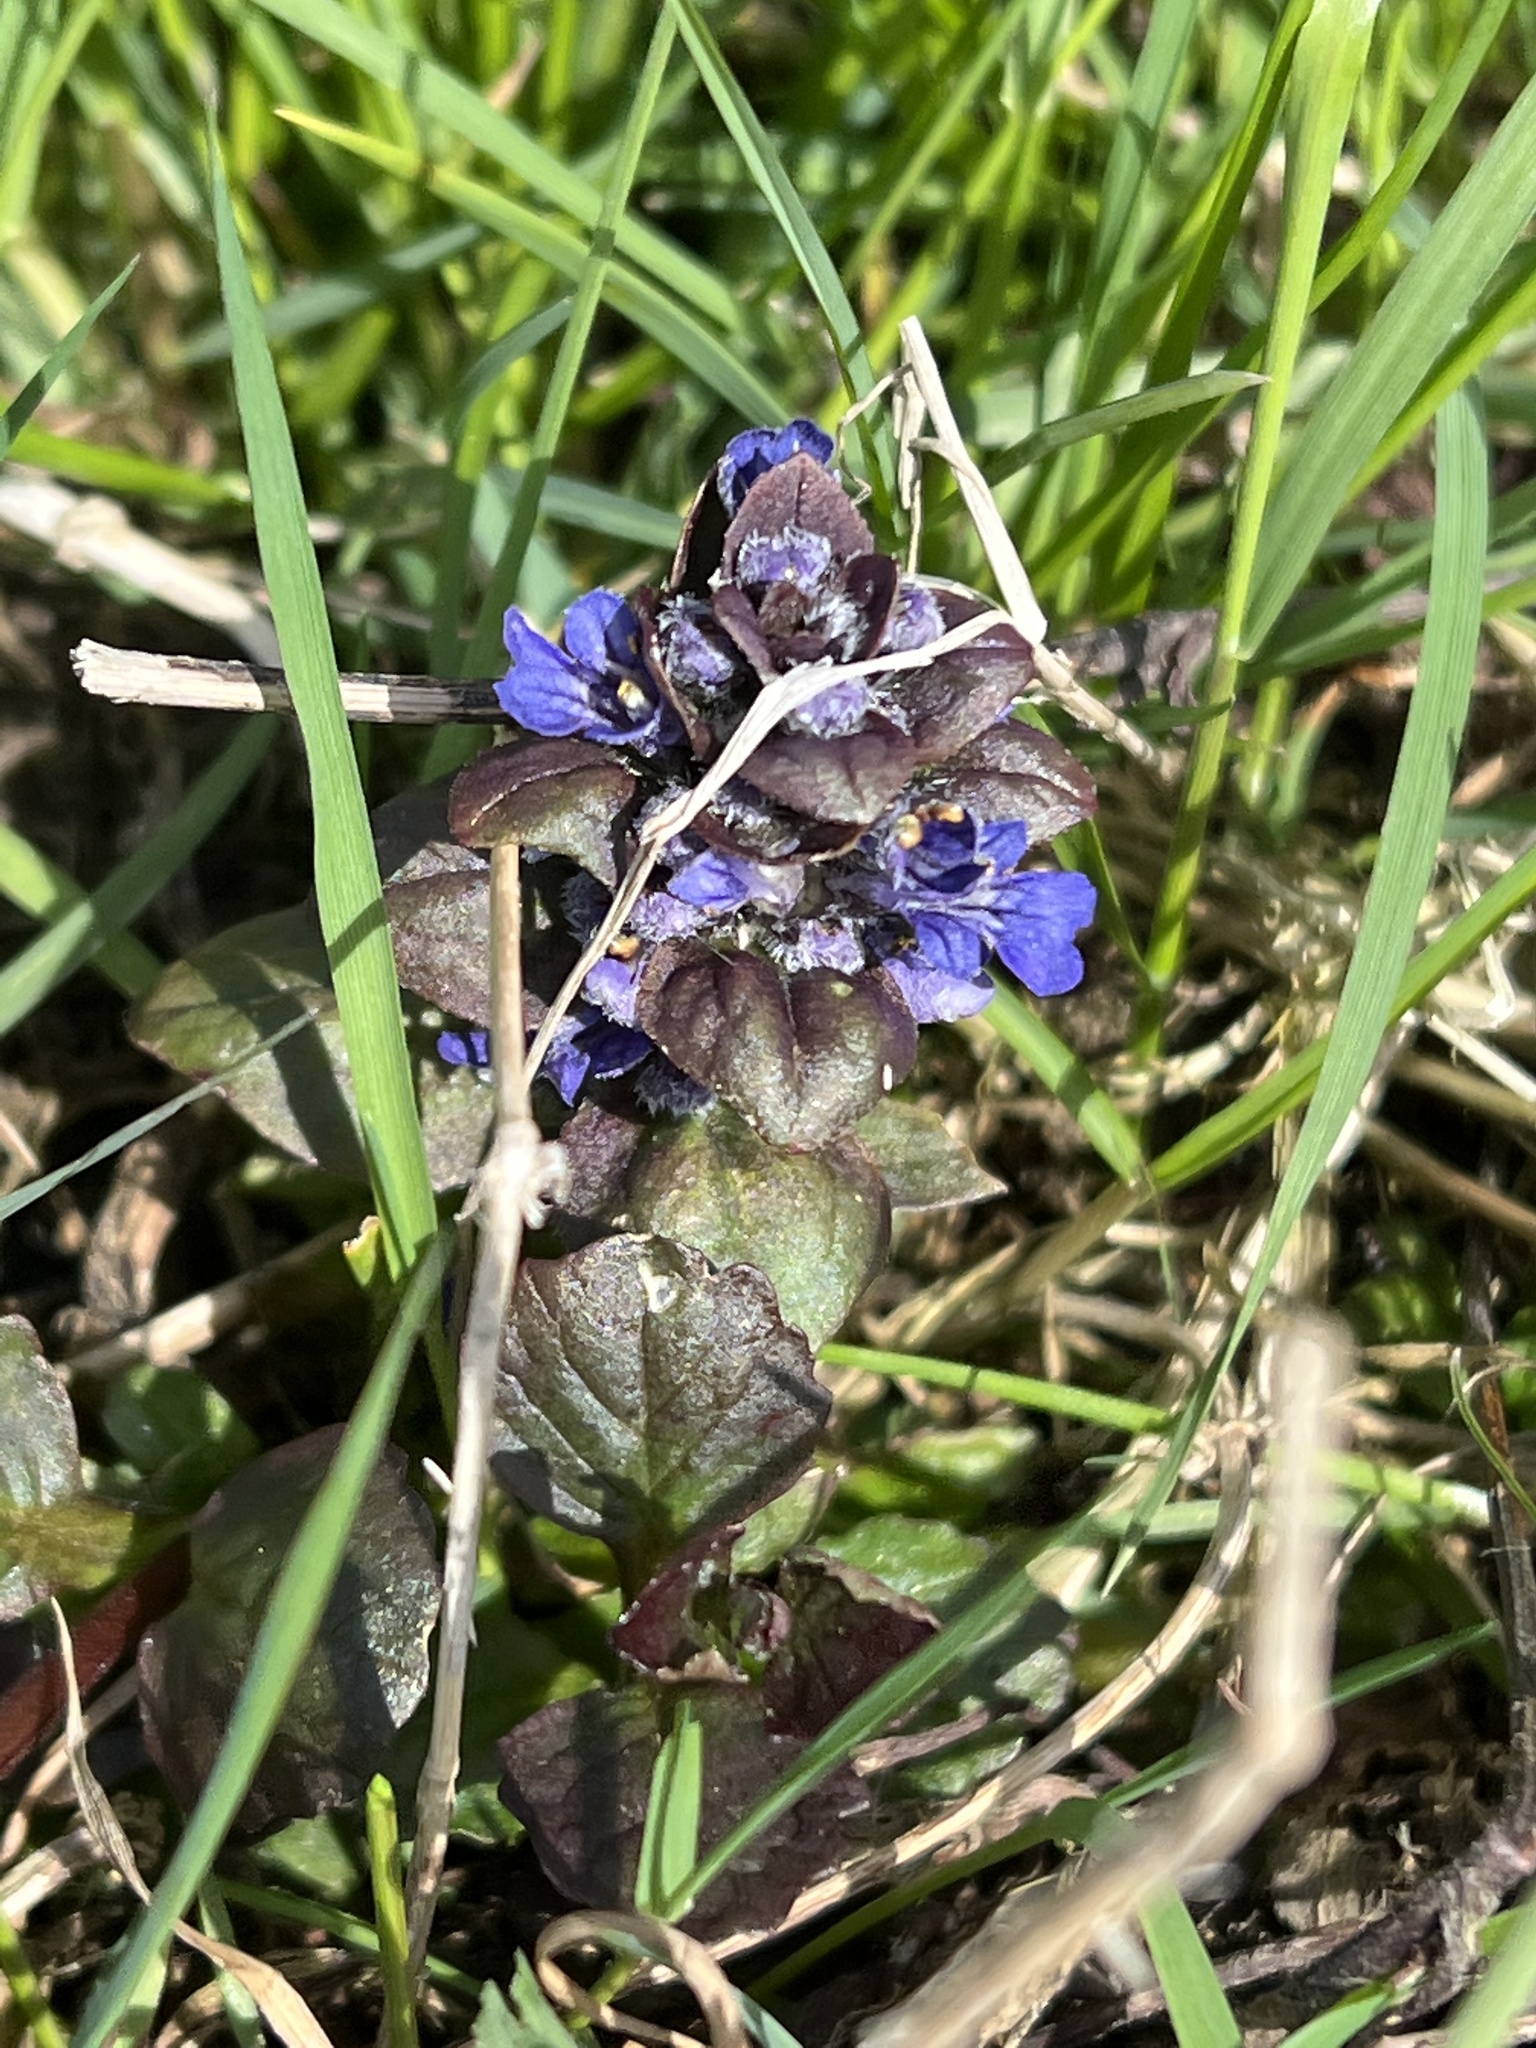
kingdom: Plantae
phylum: Tracheophyta
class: Magnoliopsida
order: Lamiales
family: Lamiaceae
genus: Ajuga
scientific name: Ajuga reptans
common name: Bugle
